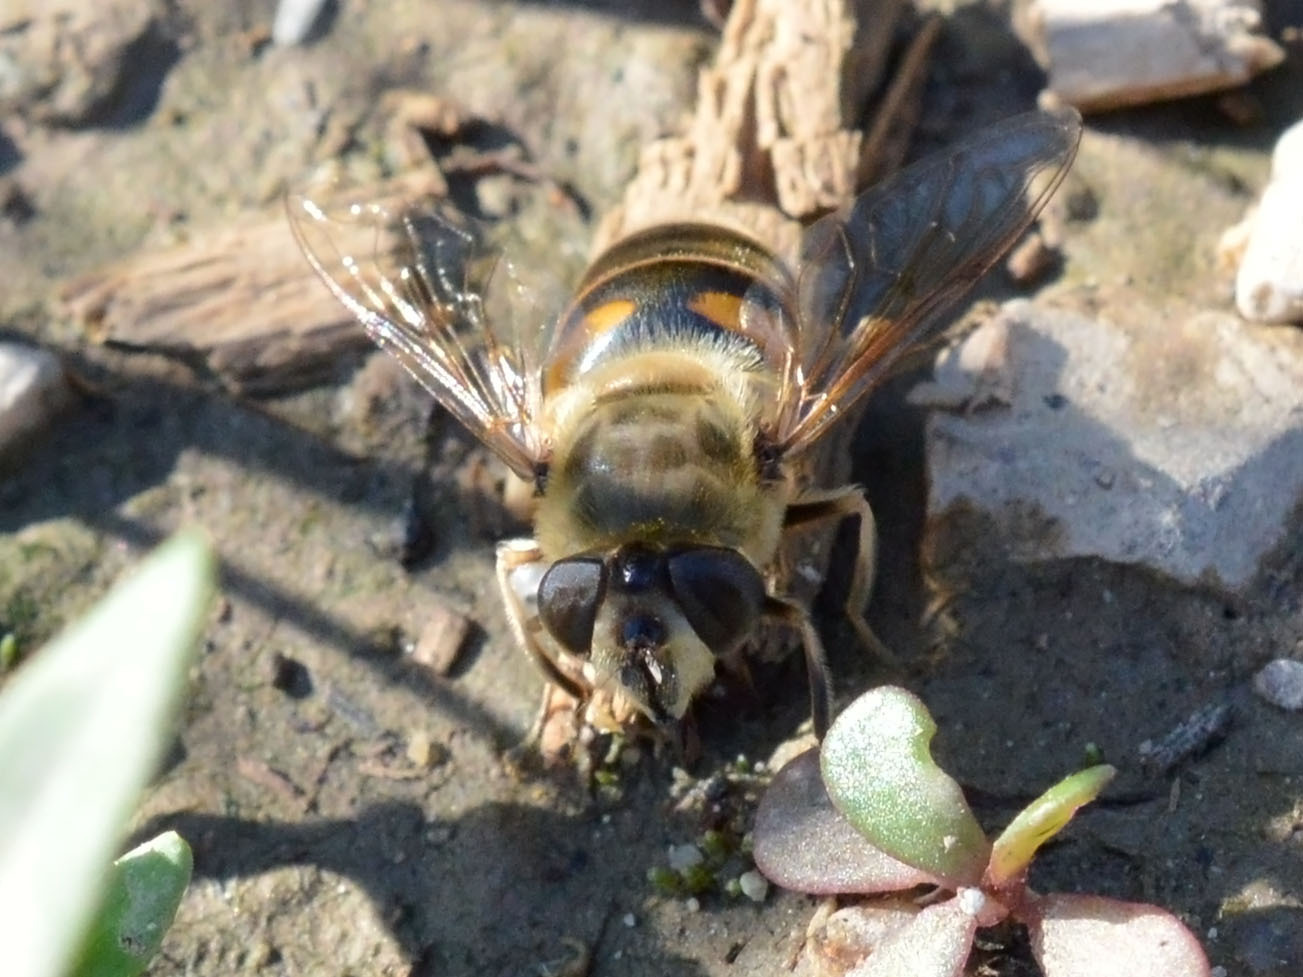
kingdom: Animalia
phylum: Arthropoda
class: Insecta
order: Diptera
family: Syrphidae
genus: Eristalis
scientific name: Eristalis tenax
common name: Drone fly
